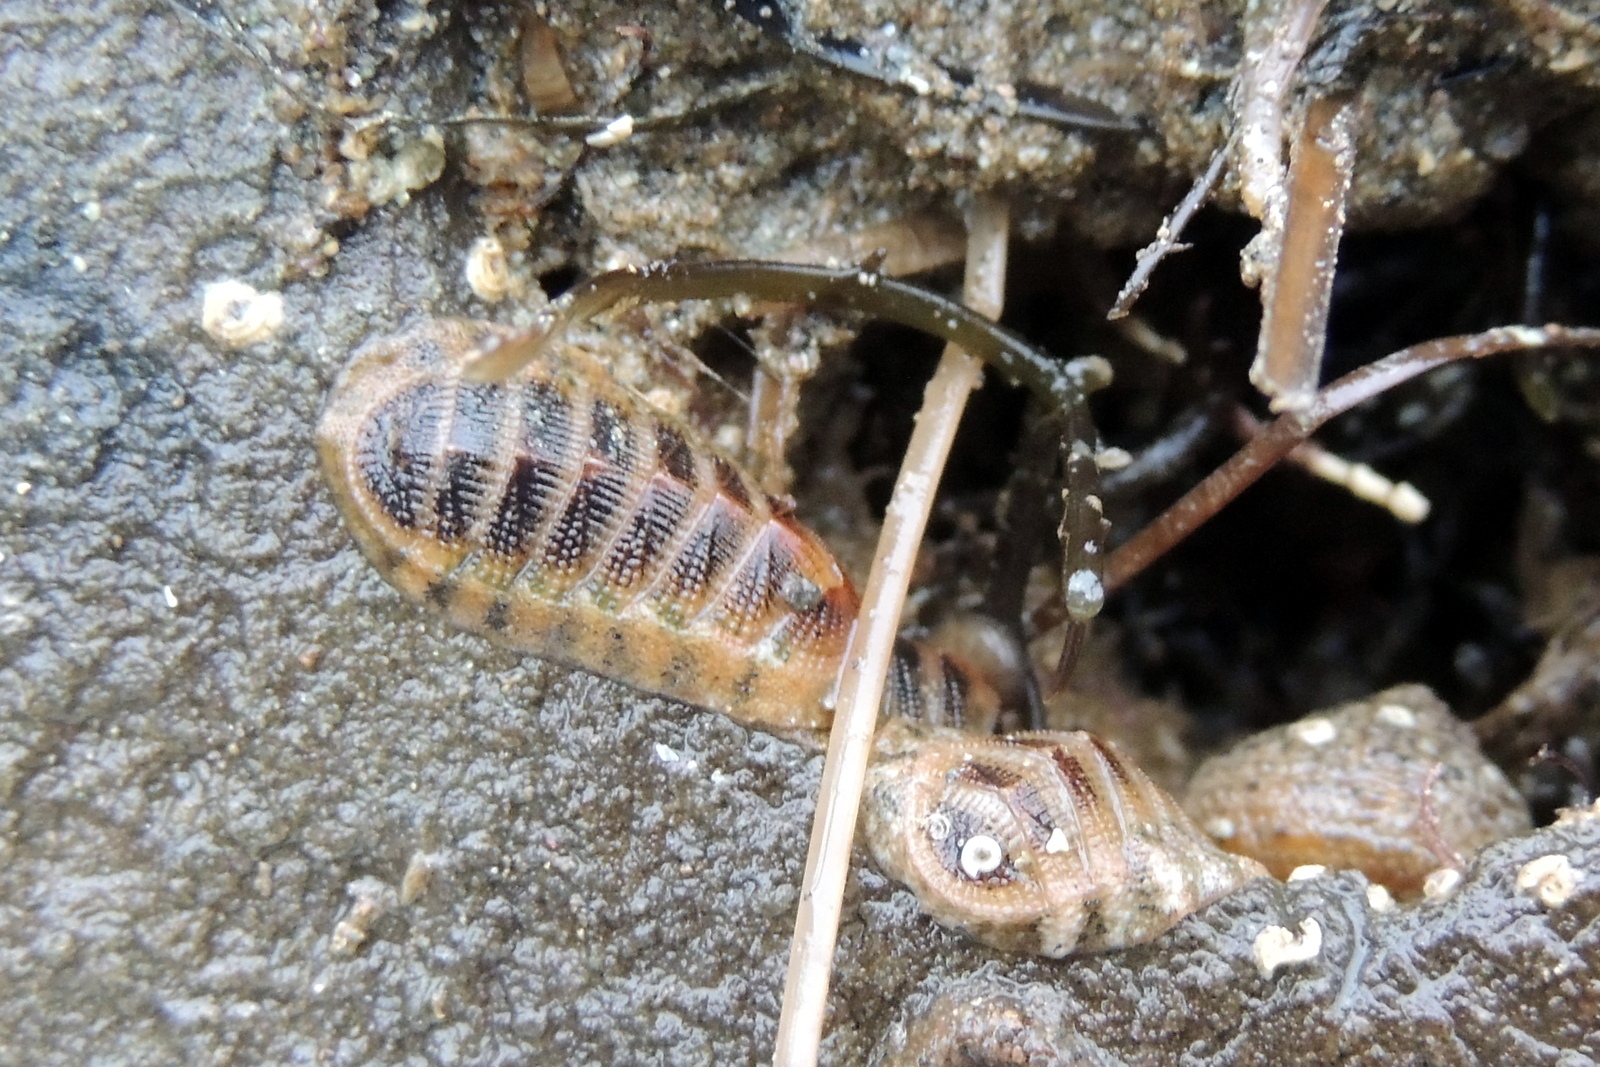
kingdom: Animalia
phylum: Mollusca
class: Polyplacophora
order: Chitonida
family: Ischnochitonidae
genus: Lepidozona
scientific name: Lepidozona pectinulata
